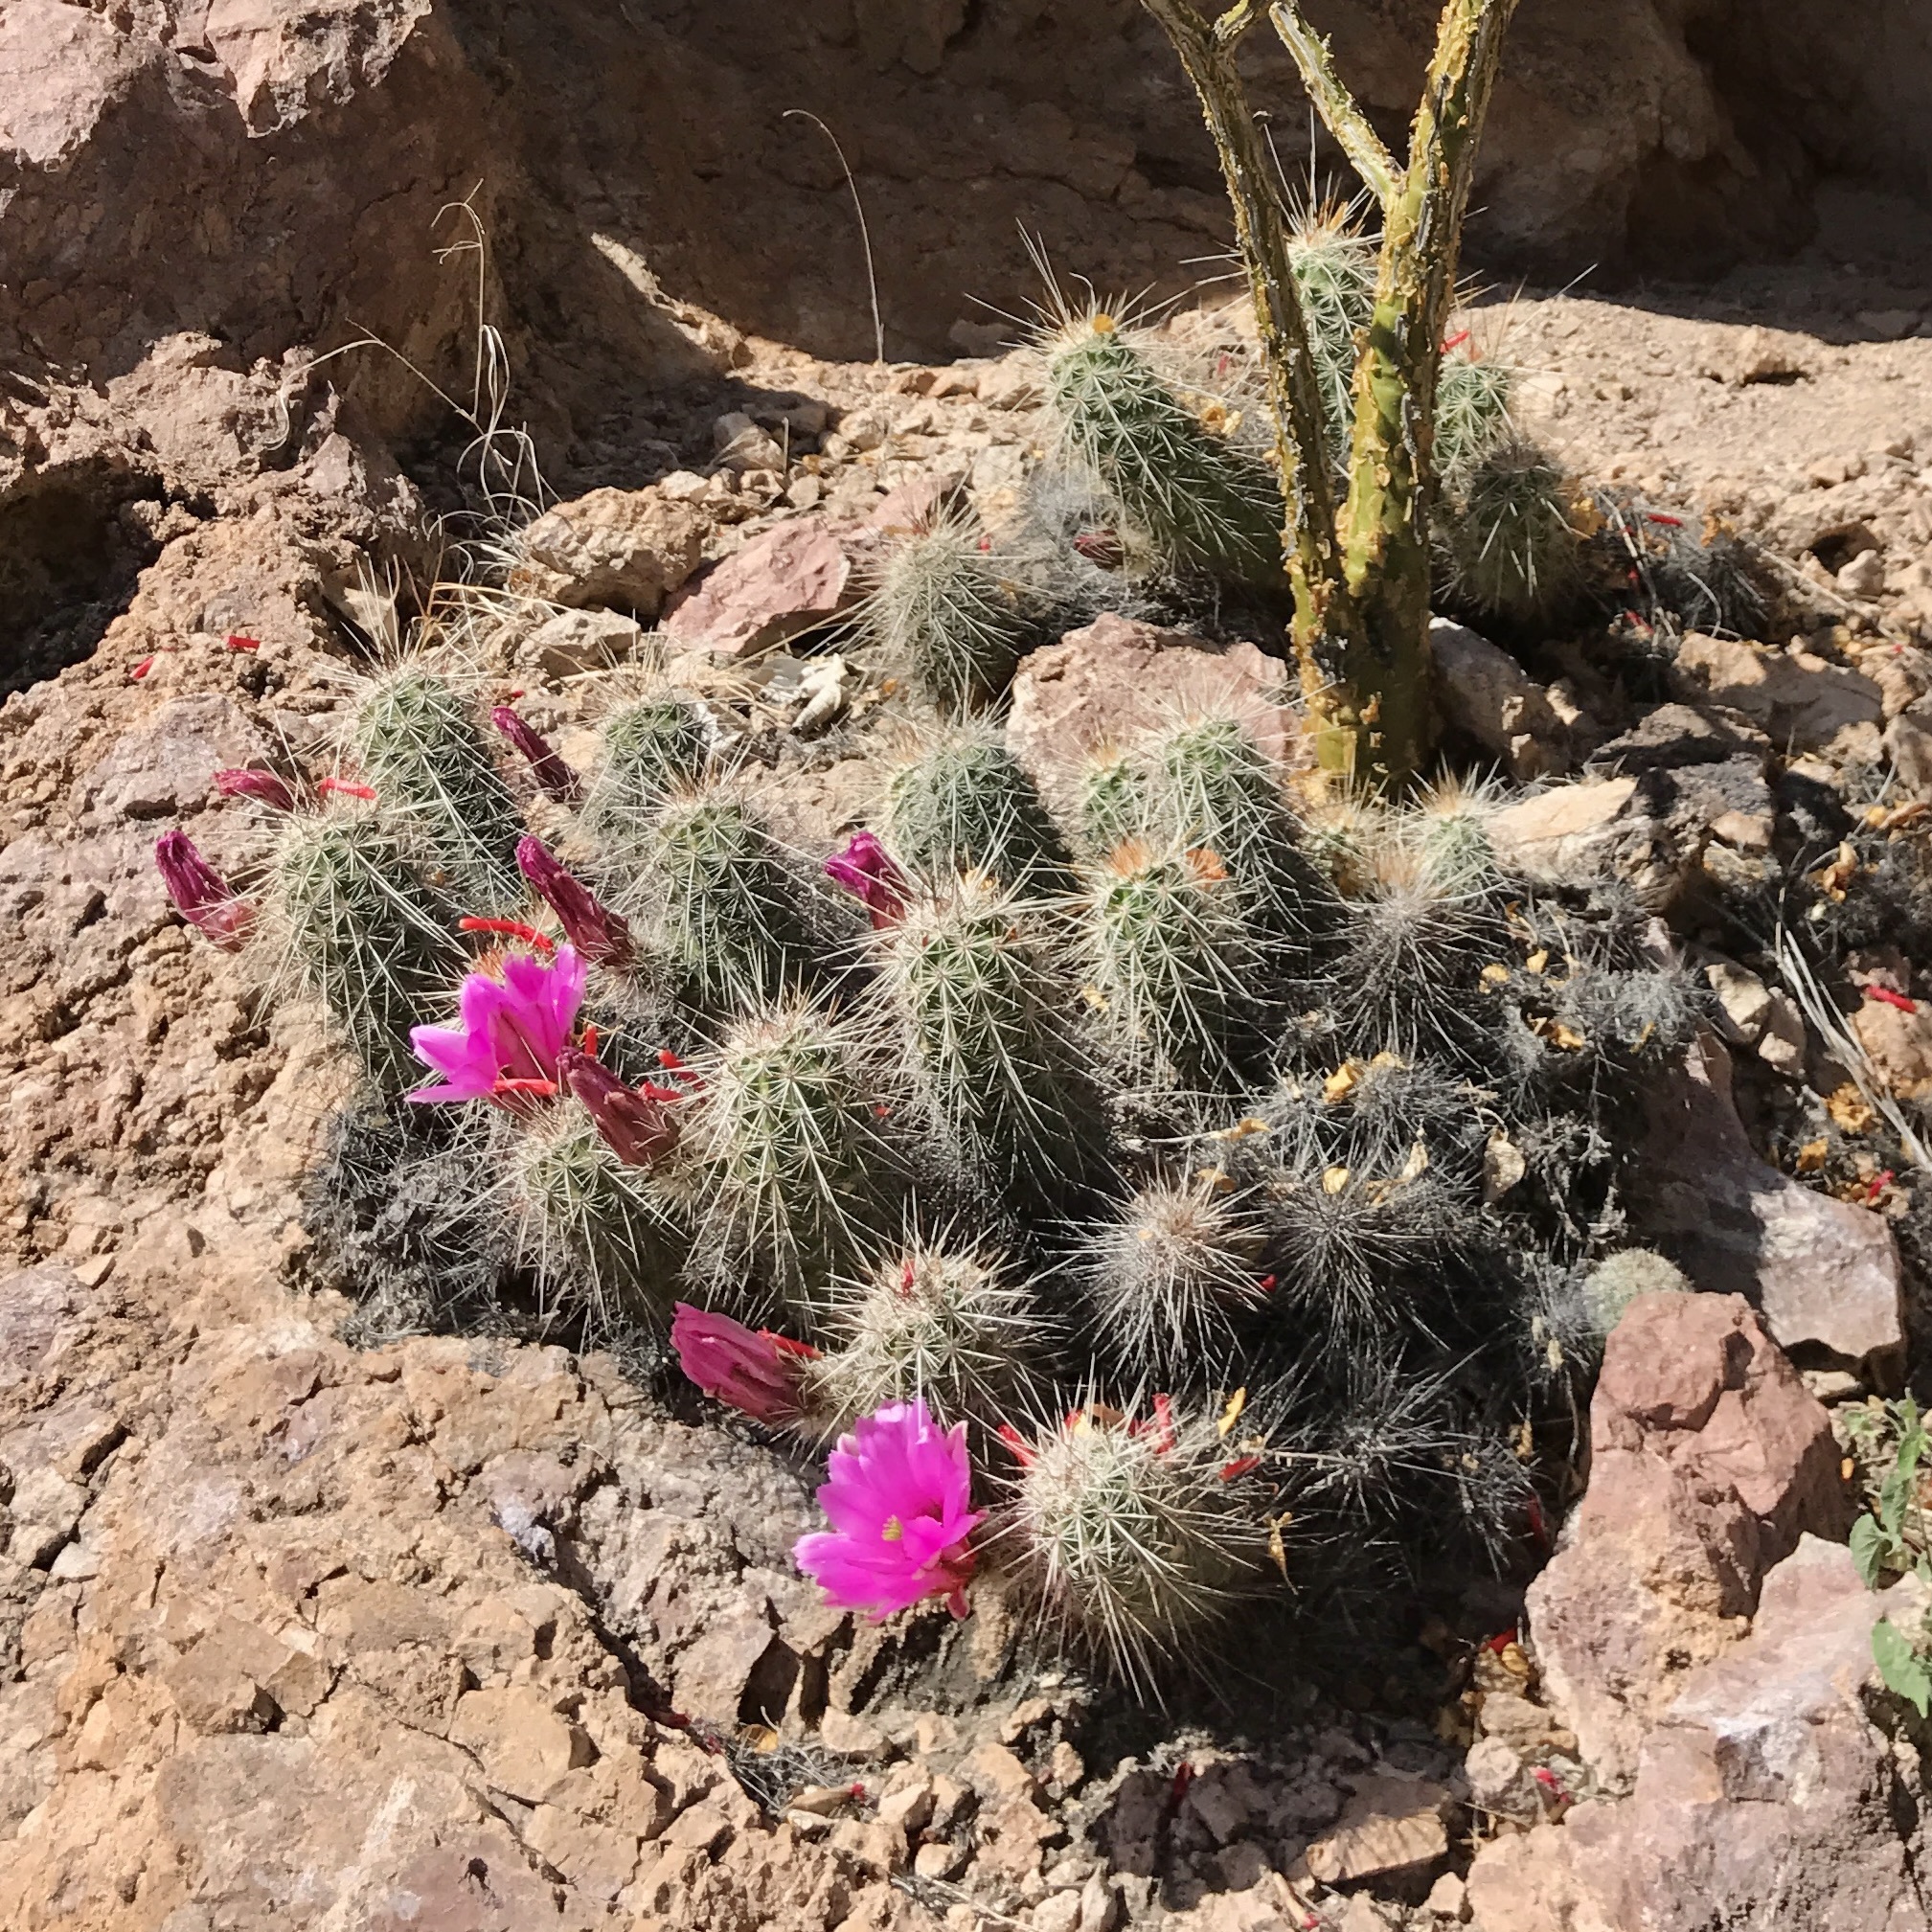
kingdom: Plantae
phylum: Tracheophyta
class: Magnoliopsida
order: Caryophyllales
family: Cactaceae
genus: Echinocereus
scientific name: Echinocereus llanurensis
